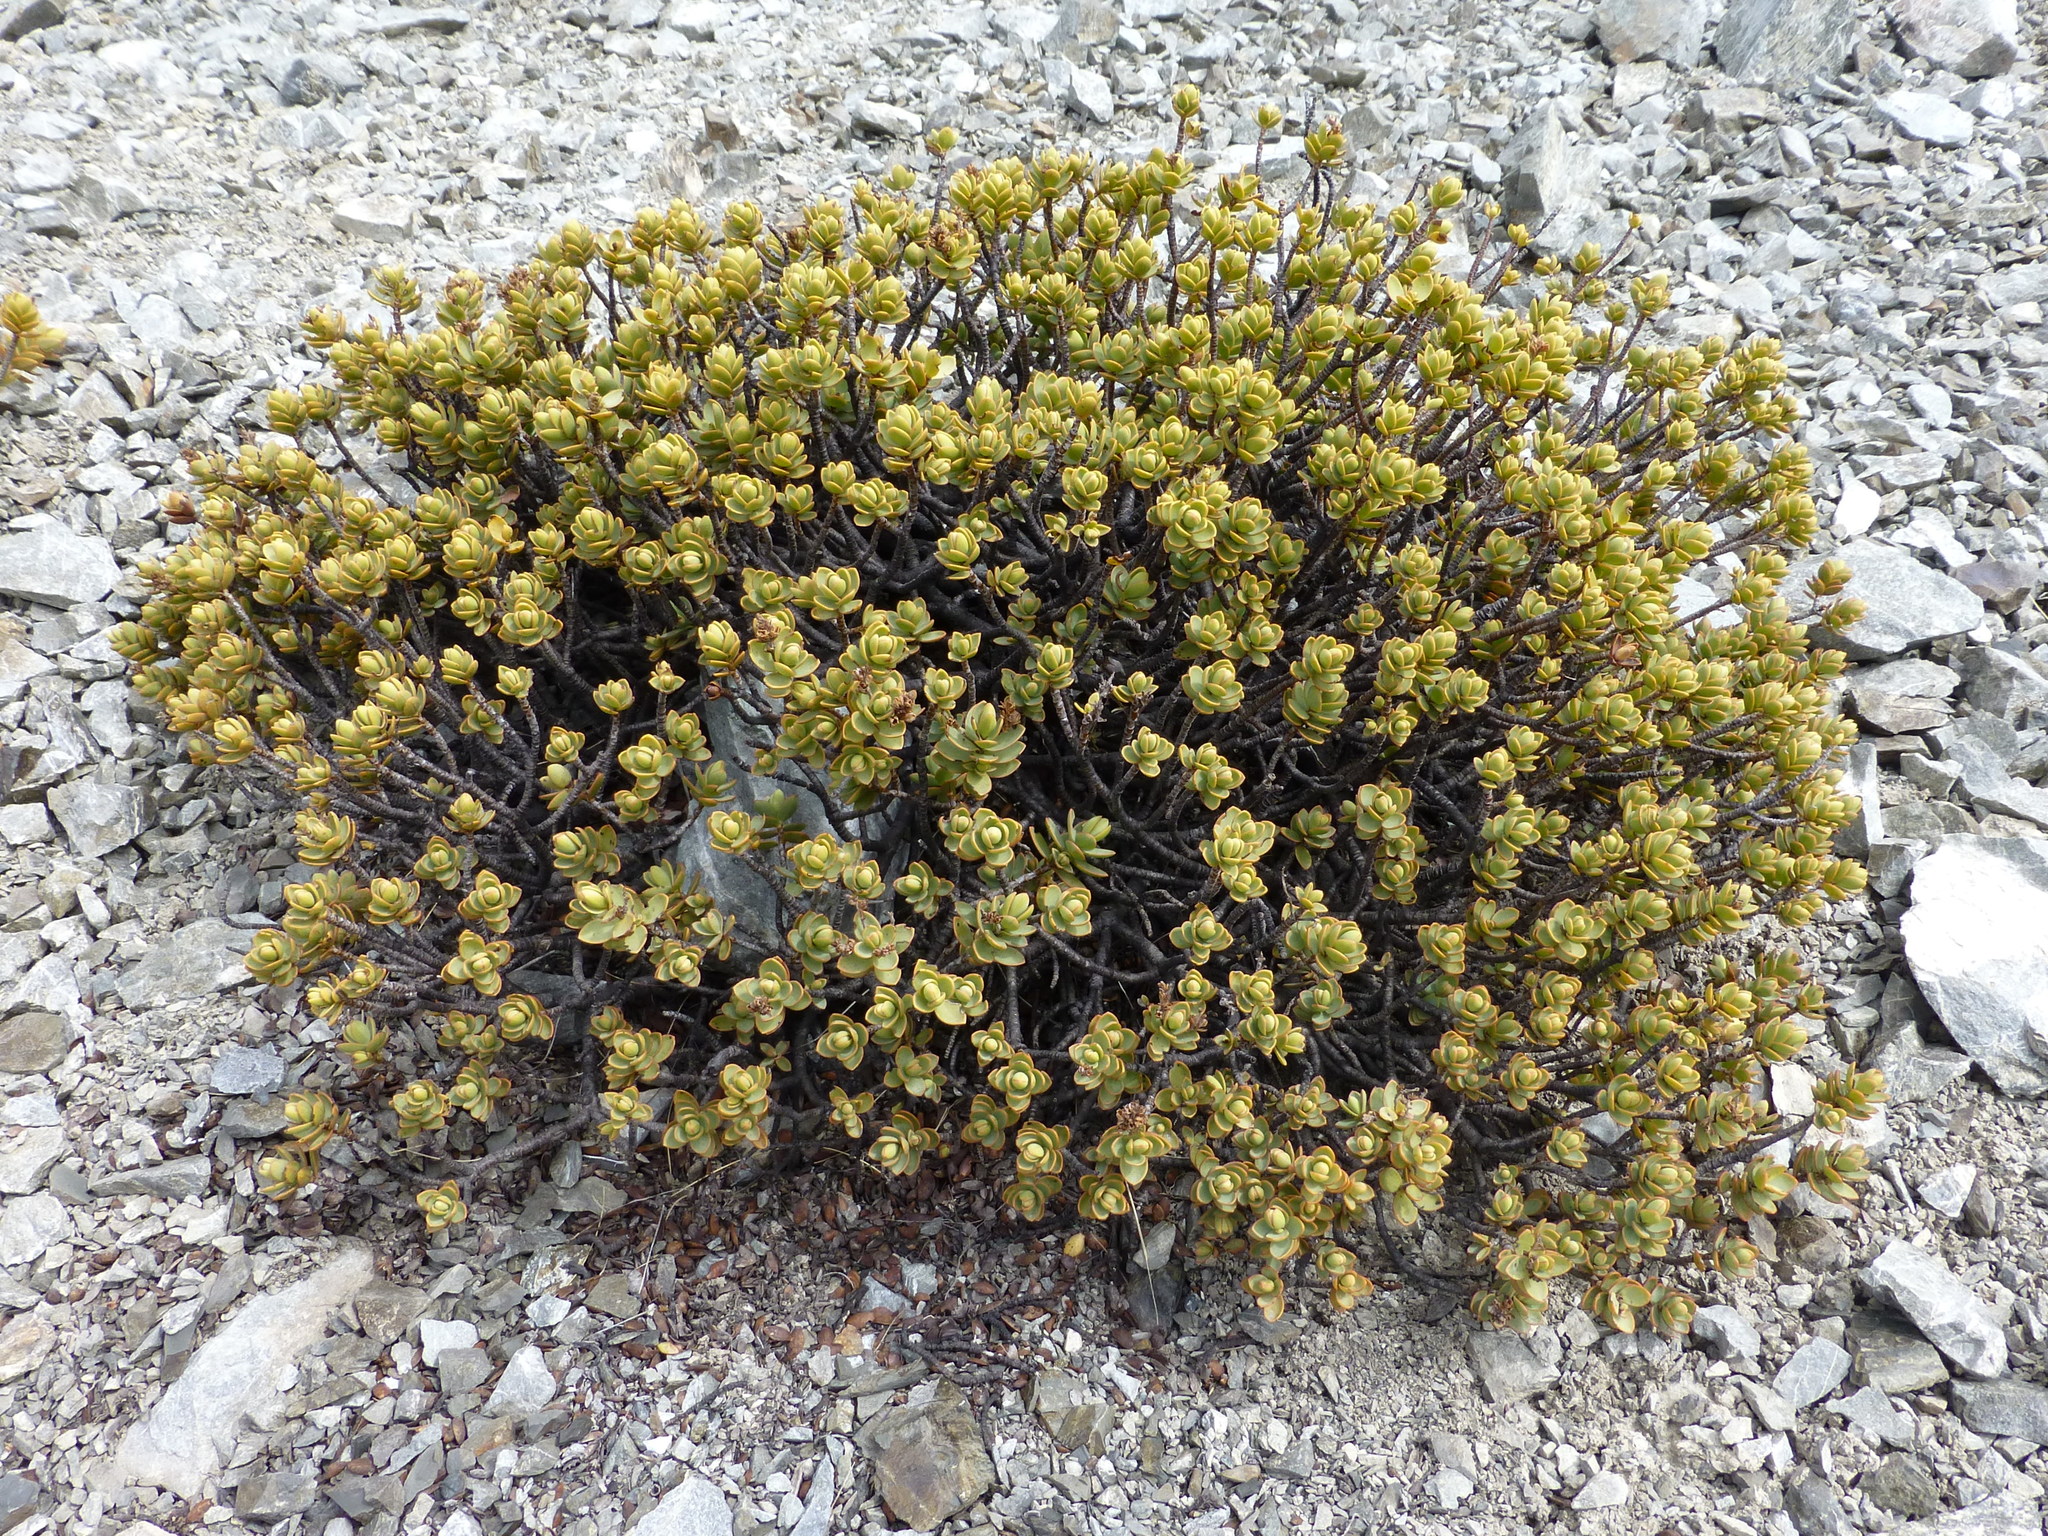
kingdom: Plantae
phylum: Tracheophyta
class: Magnoliopsida
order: Lamiales
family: Plantaginaceae
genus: Veronica
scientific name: Veronica pinguifolia
